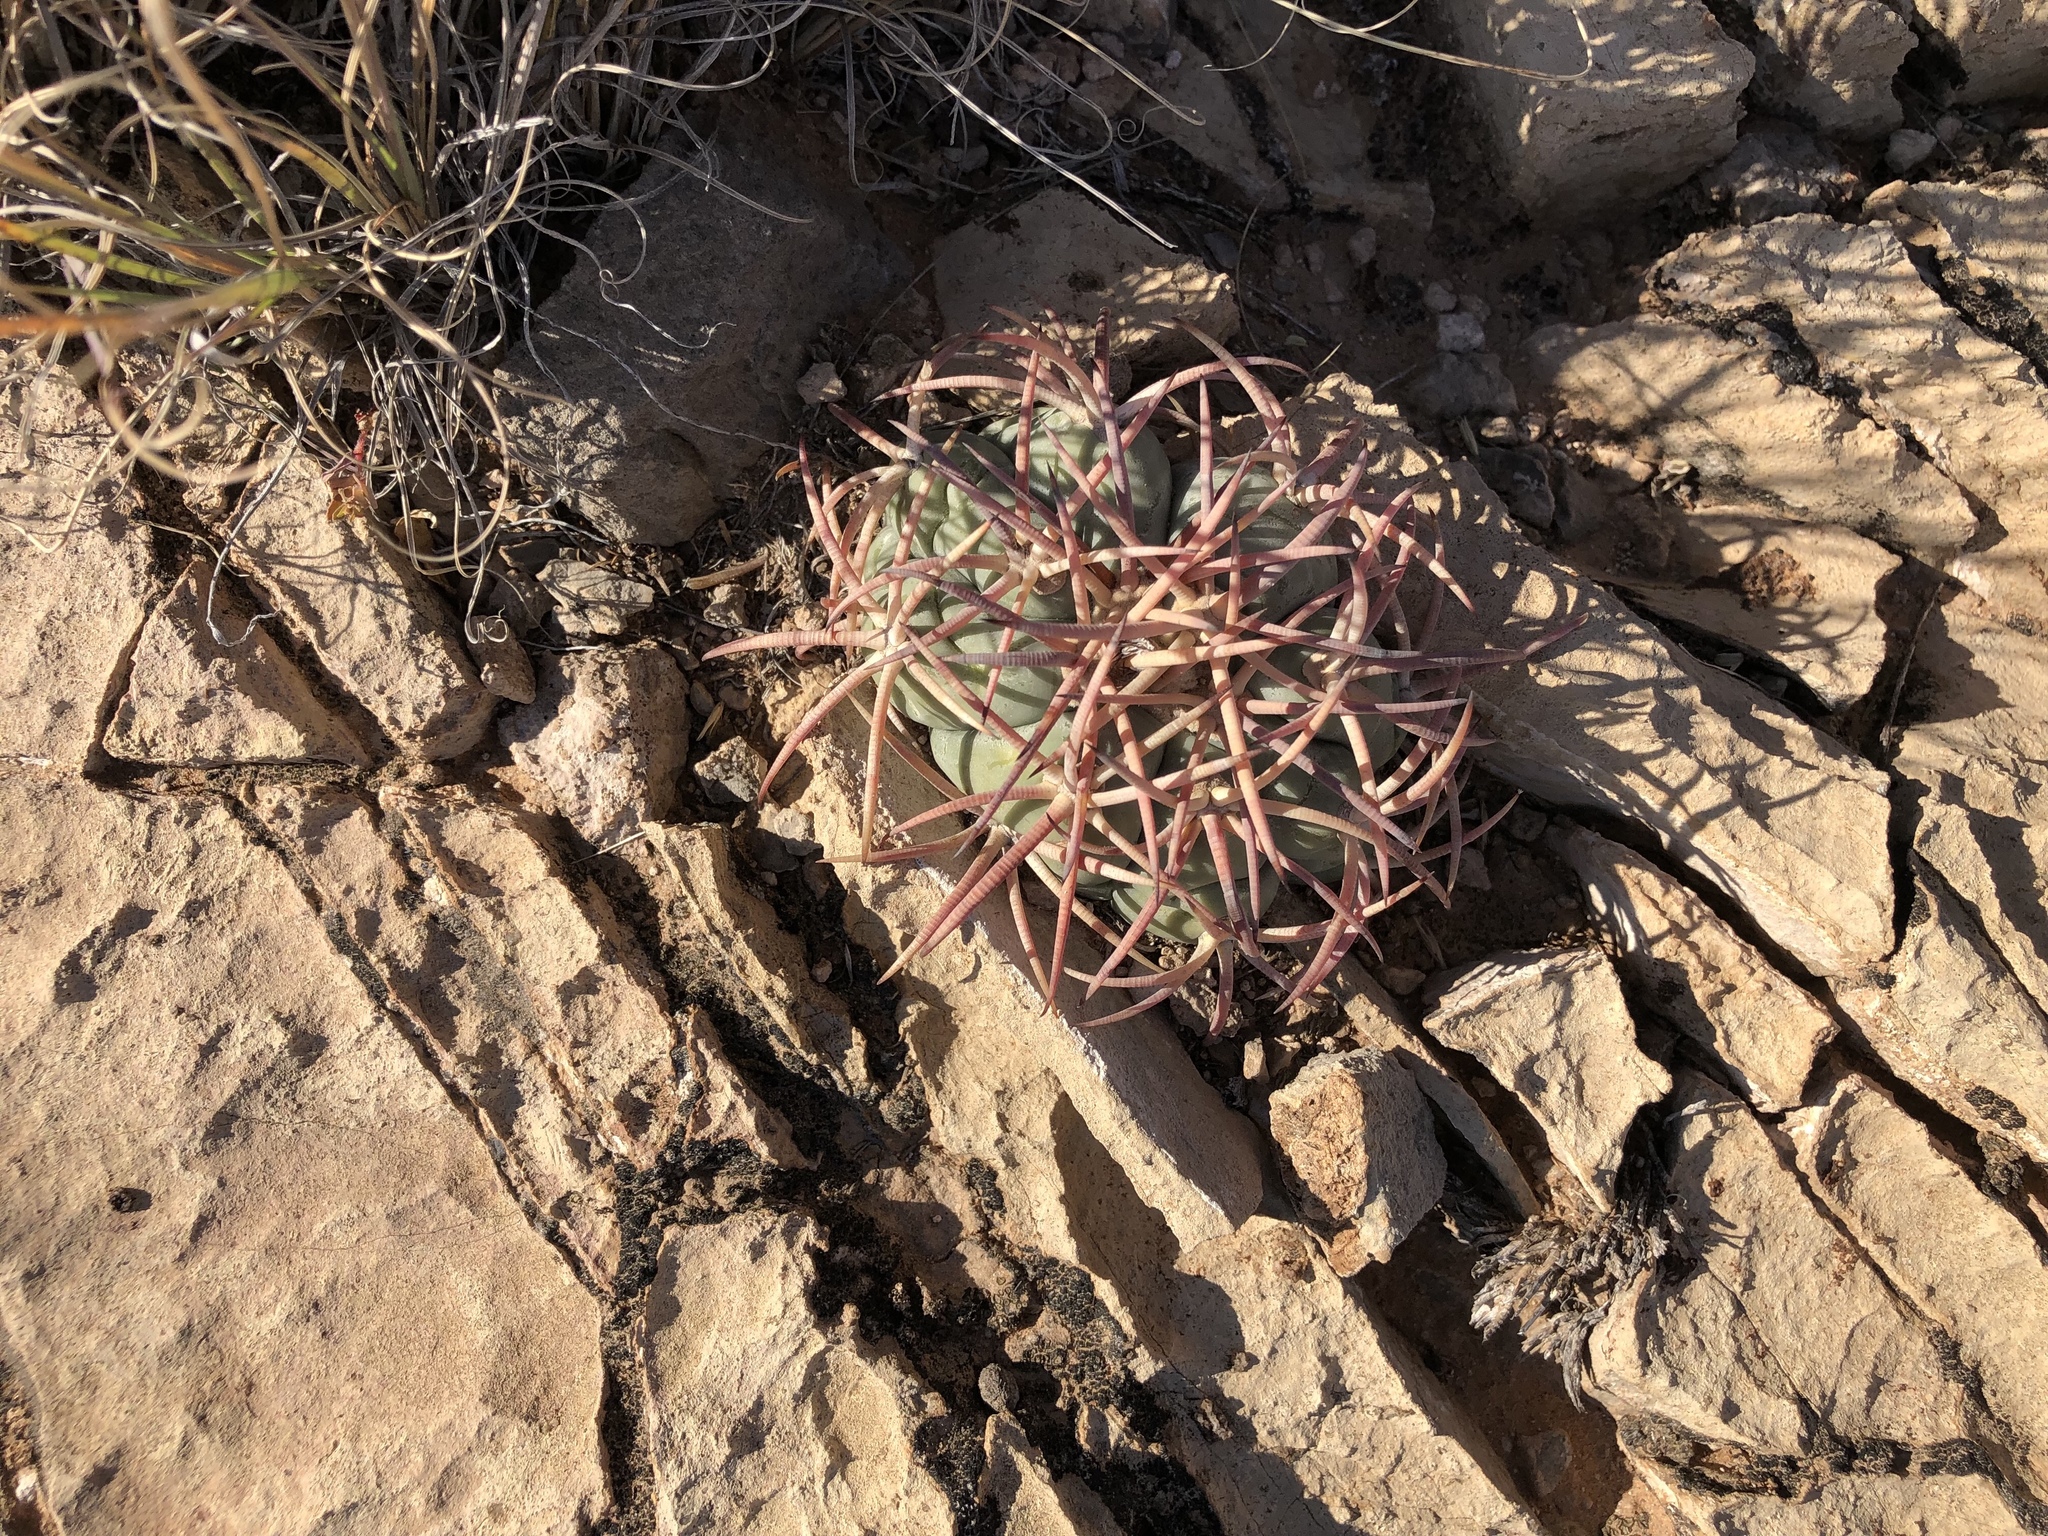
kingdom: Plantae
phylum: Tracheophyta
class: Magnoliopsida
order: Caryophyllales
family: Cactaceae
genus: Echinocactus
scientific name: Echinocactus horizonthalonius
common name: Devilshead
